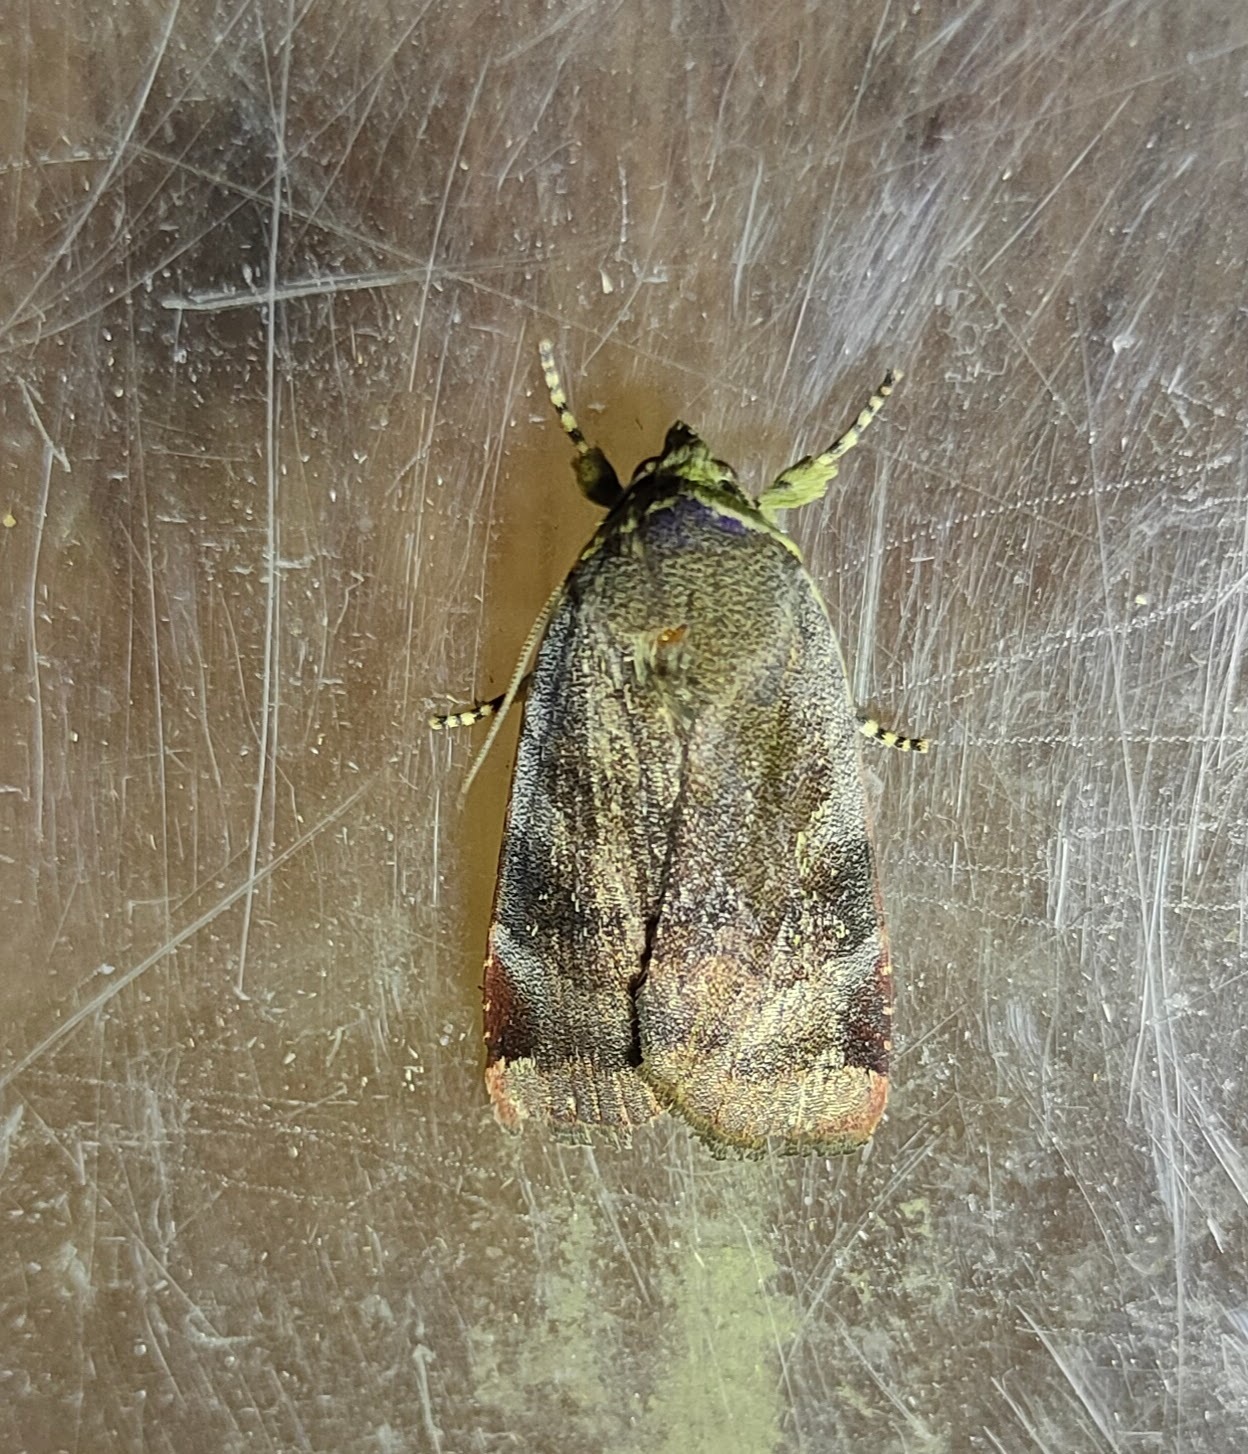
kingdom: Animalia
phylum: Arthropoda
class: Insecta
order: Lepidoptera
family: Noctuidae
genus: Noctua
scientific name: Noctua janthe
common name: Lesser broad-bordered yellow underwing
